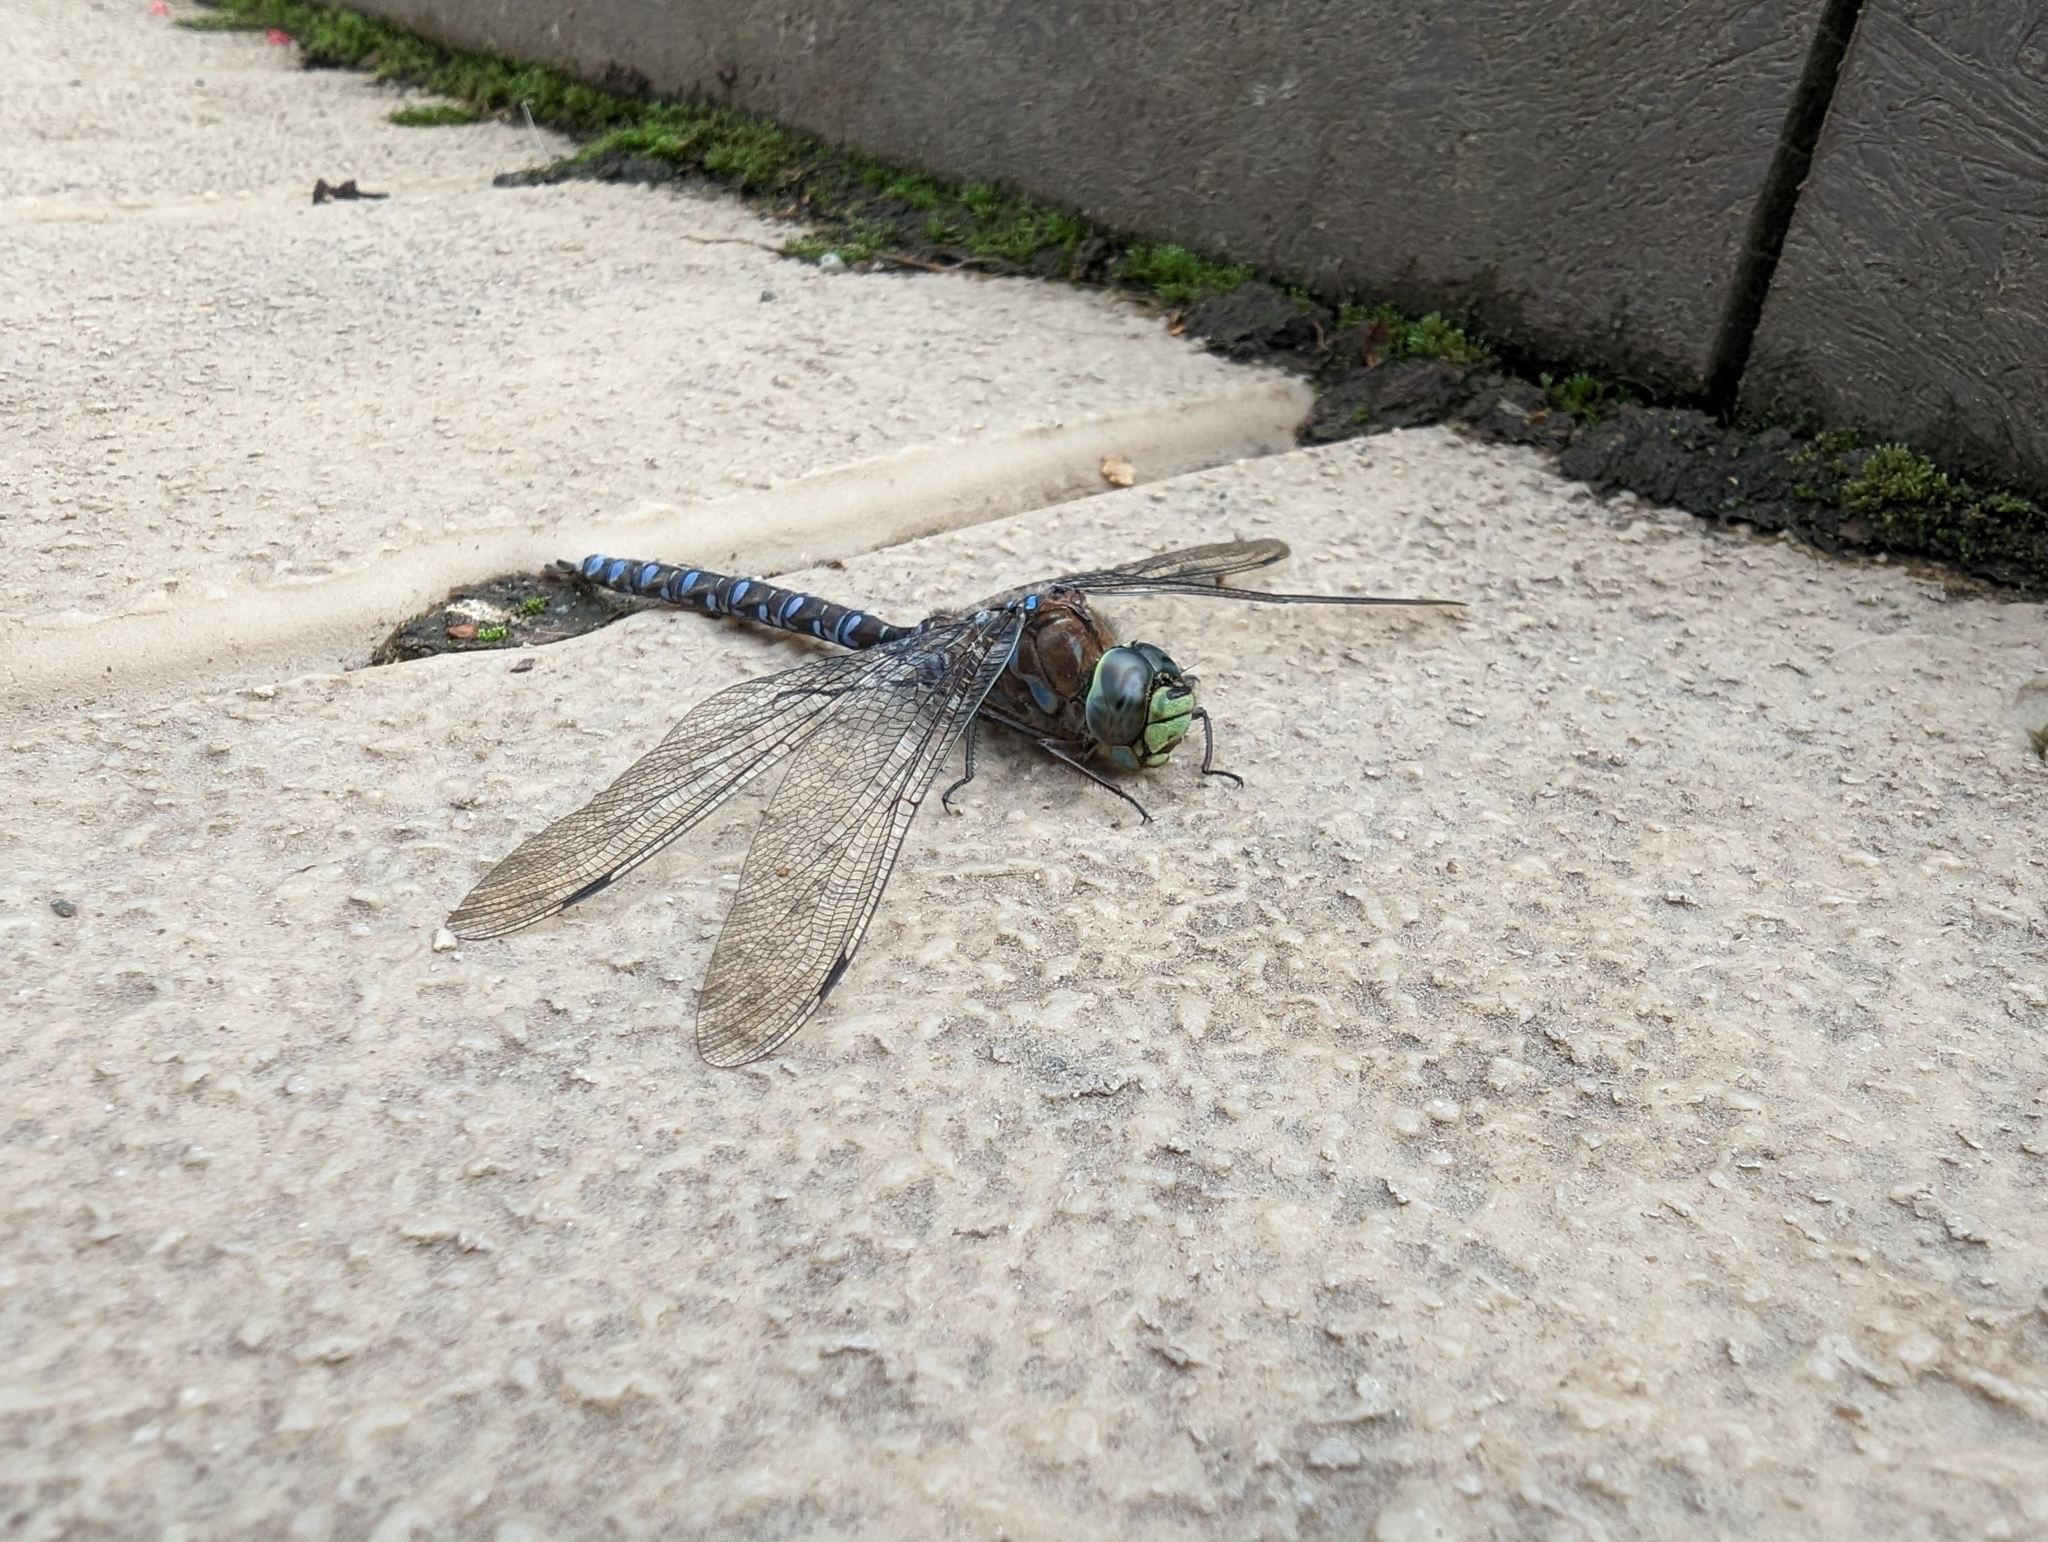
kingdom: Animalia
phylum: Arthropoda
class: Insecta
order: Odonata
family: Aeshnidae
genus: Aeshna
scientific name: Aeshna eremita
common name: Lake darner
